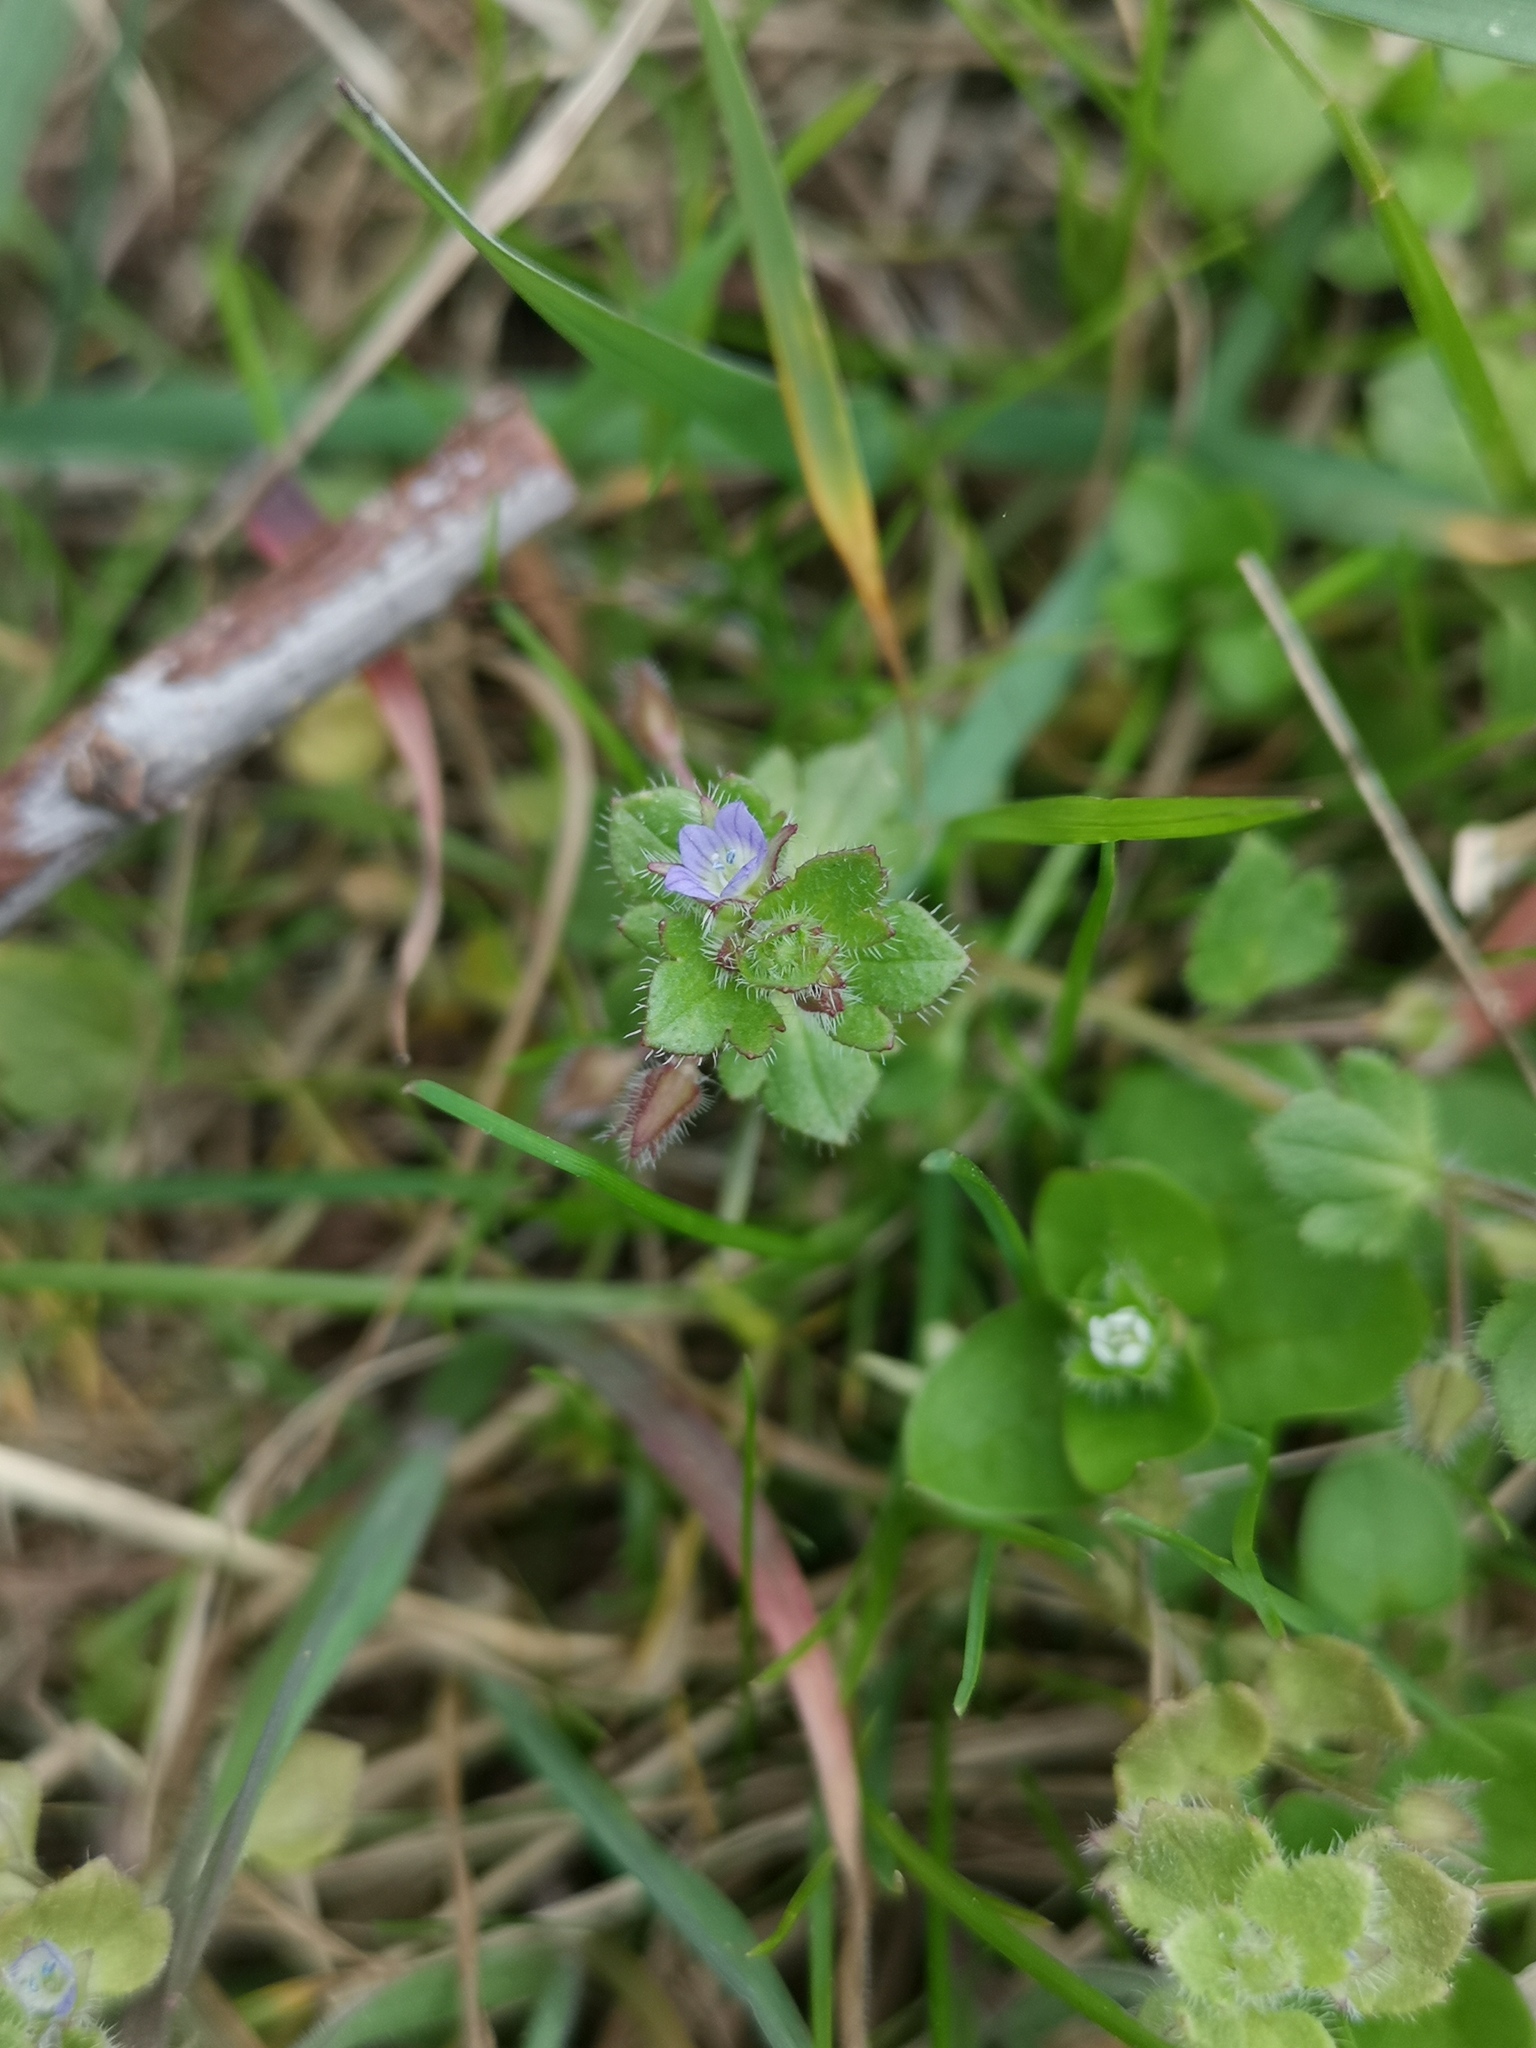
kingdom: Plantae
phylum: Tracheophyta
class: Magnoliopsida
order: Lamiales
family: Plantaginaceae
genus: Veronica
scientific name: Veronica hederifolia
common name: Ivy-leaved speedwell
